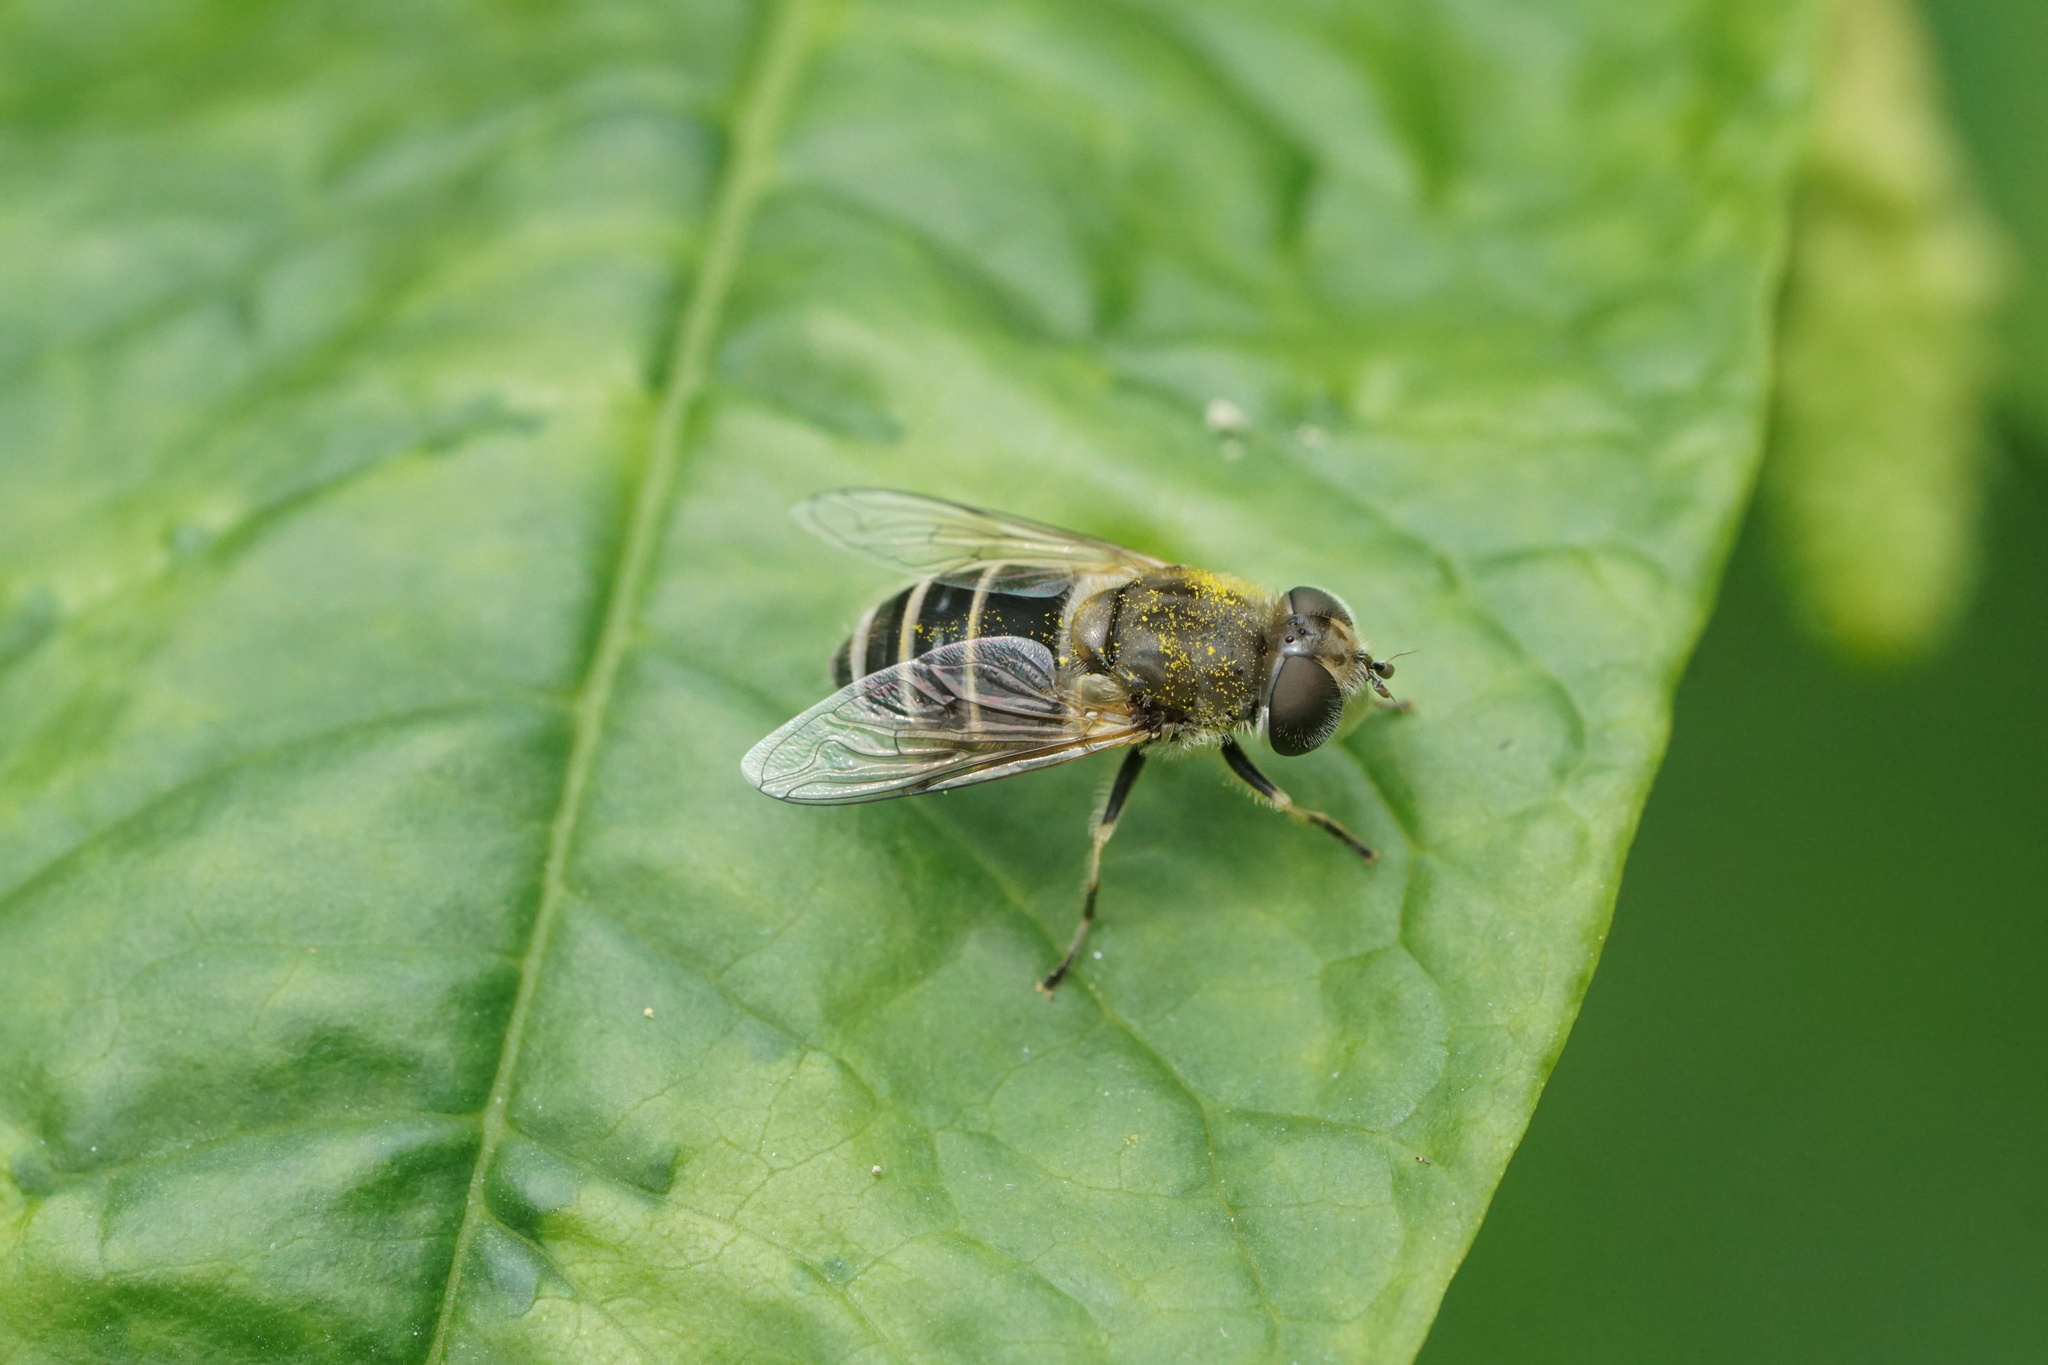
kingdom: Animalia
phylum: Arthropoda
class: Insecta
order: Diptera
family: Syrphidae
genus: Eristalis
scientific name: Eristalis arbustorum
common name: Hover fly
